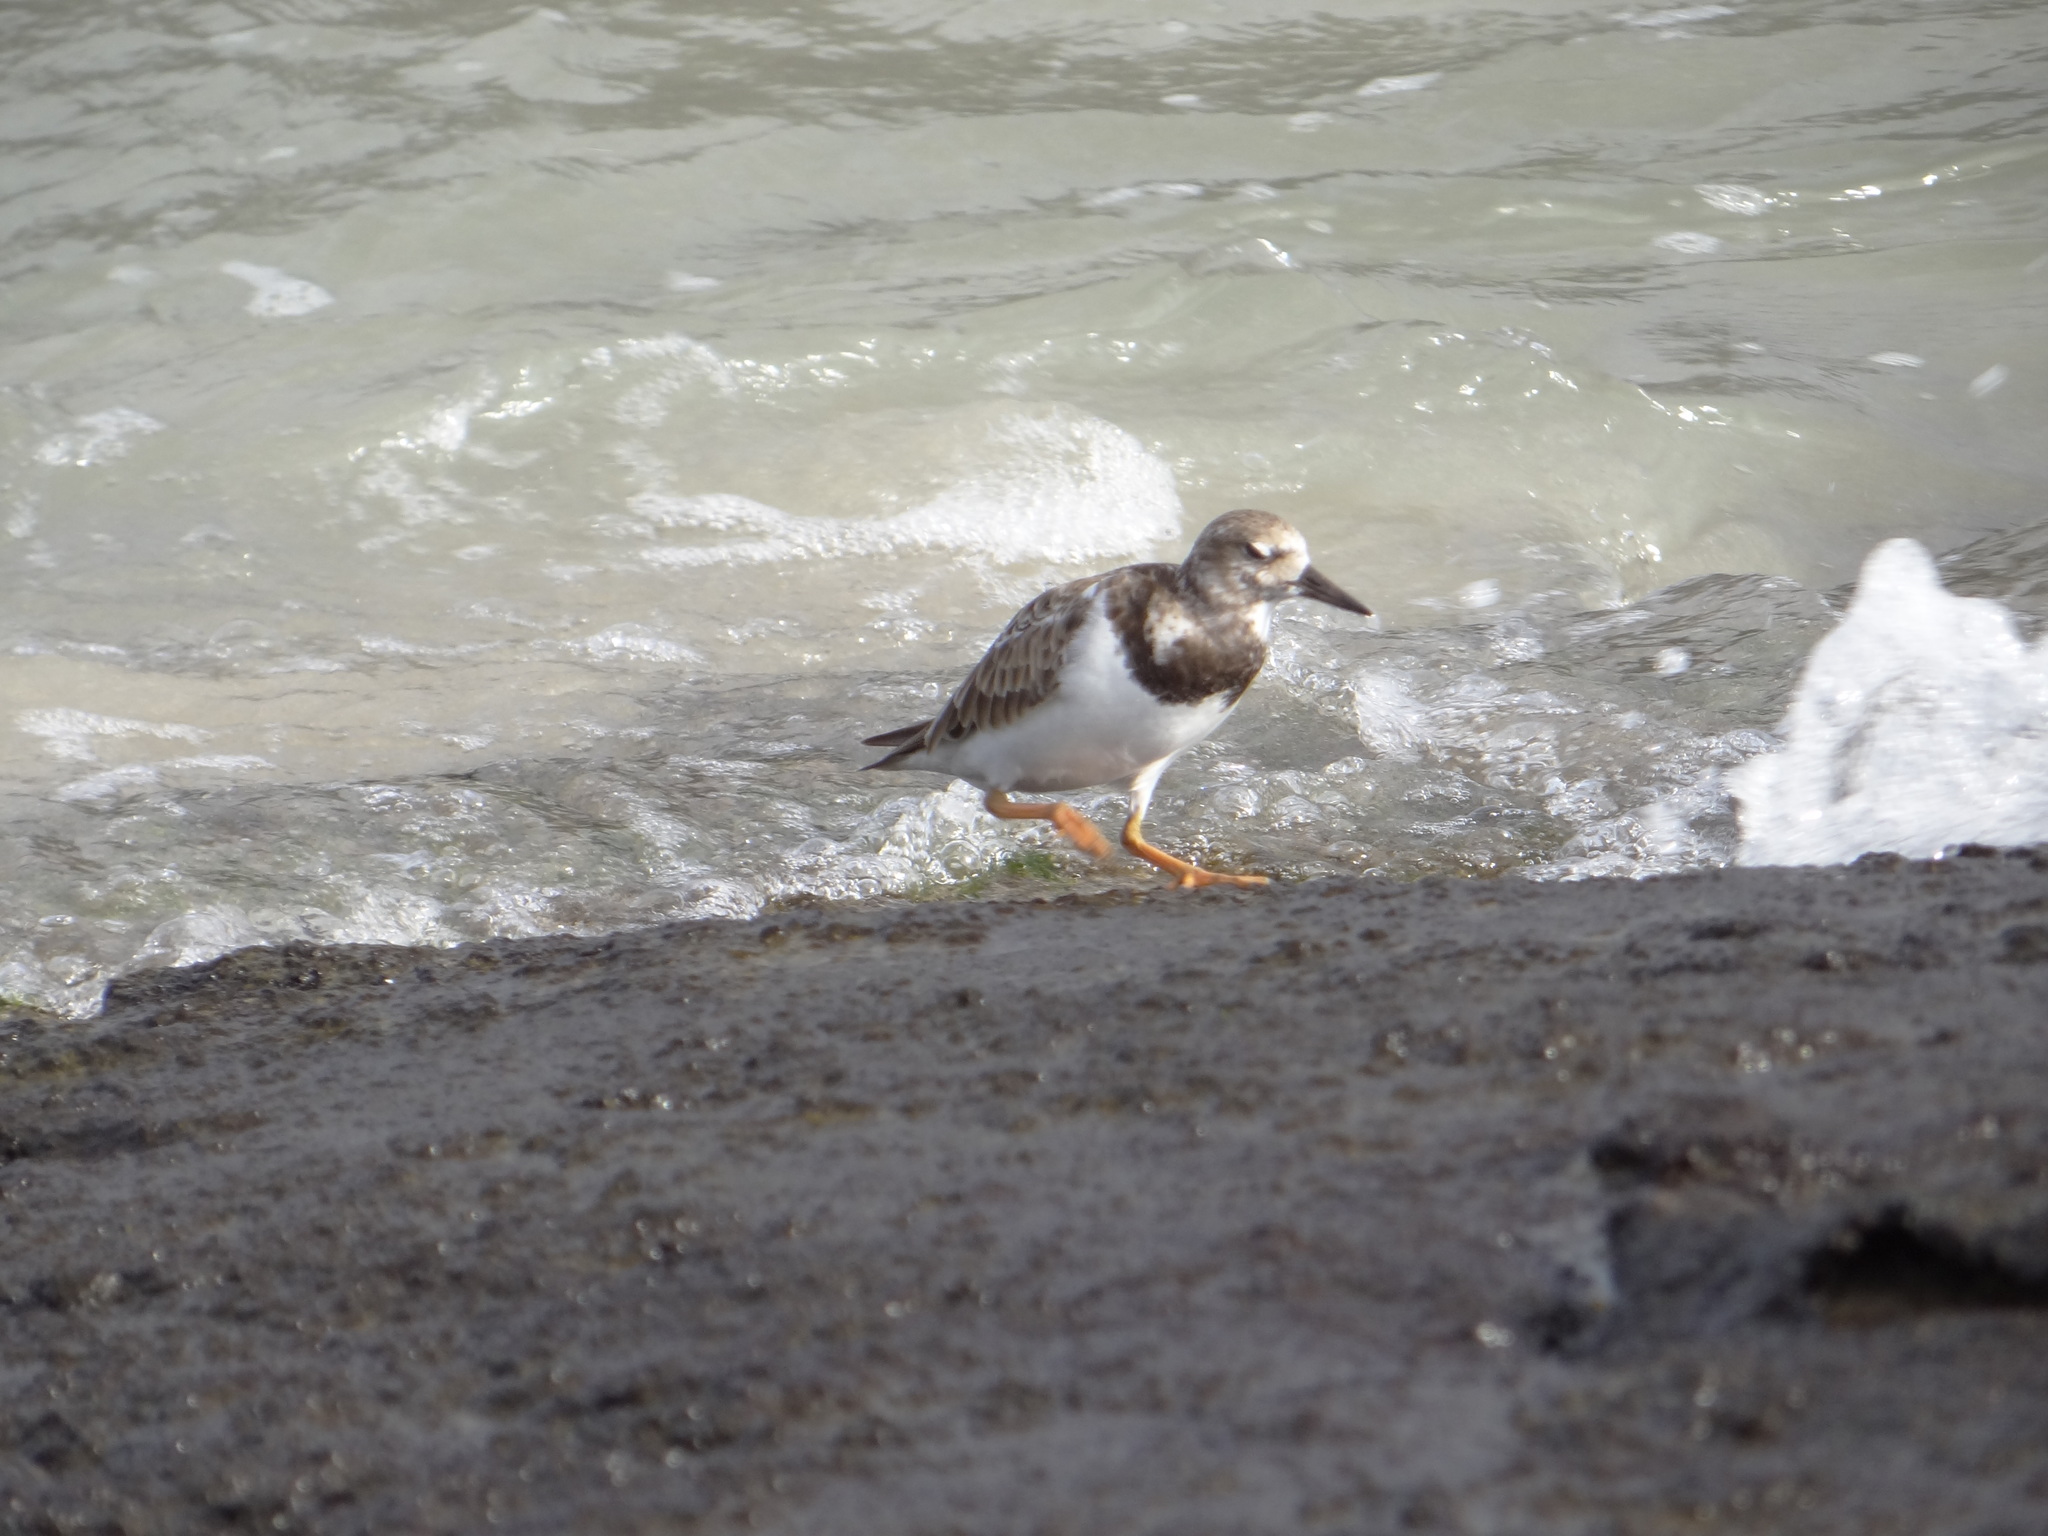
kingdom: Animalia
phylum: Chordata
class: Aves
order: Charadriiformes
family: Scolopacidae
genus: Arenaria
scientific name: Arenaria interpres
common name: Ruddy turnstone
